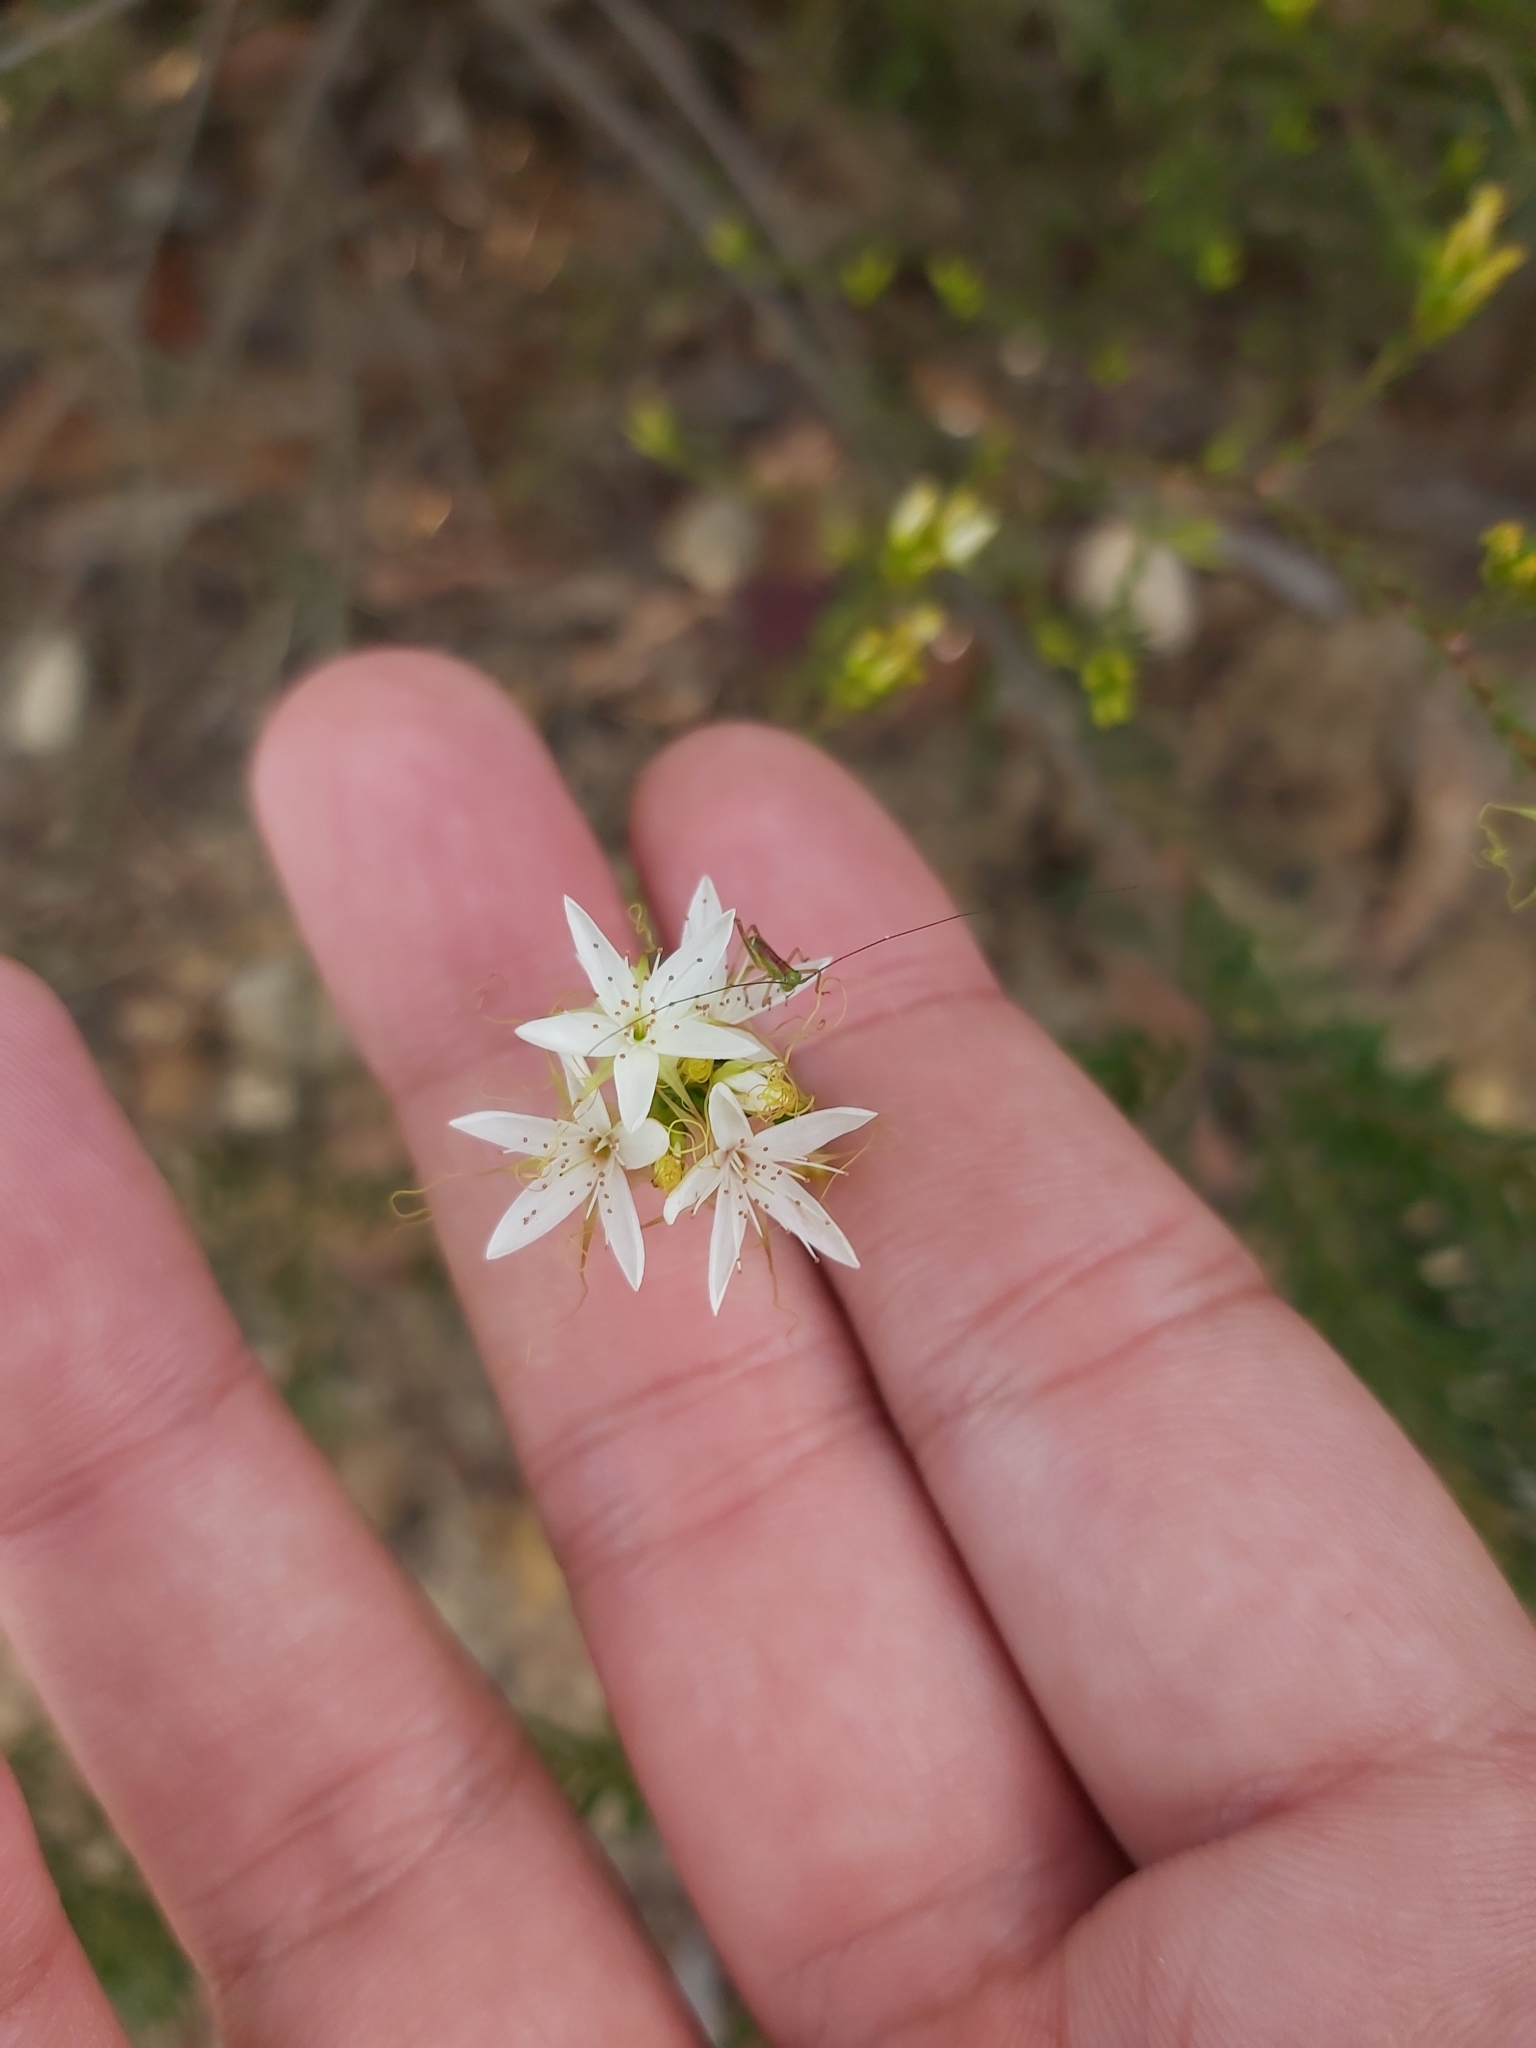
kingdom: Animalia
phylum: Arthropoda
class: Insecta
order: Orthoptera
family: Tettigoniidae
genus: Conocephalomima
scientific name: Conocephalomima barameda
